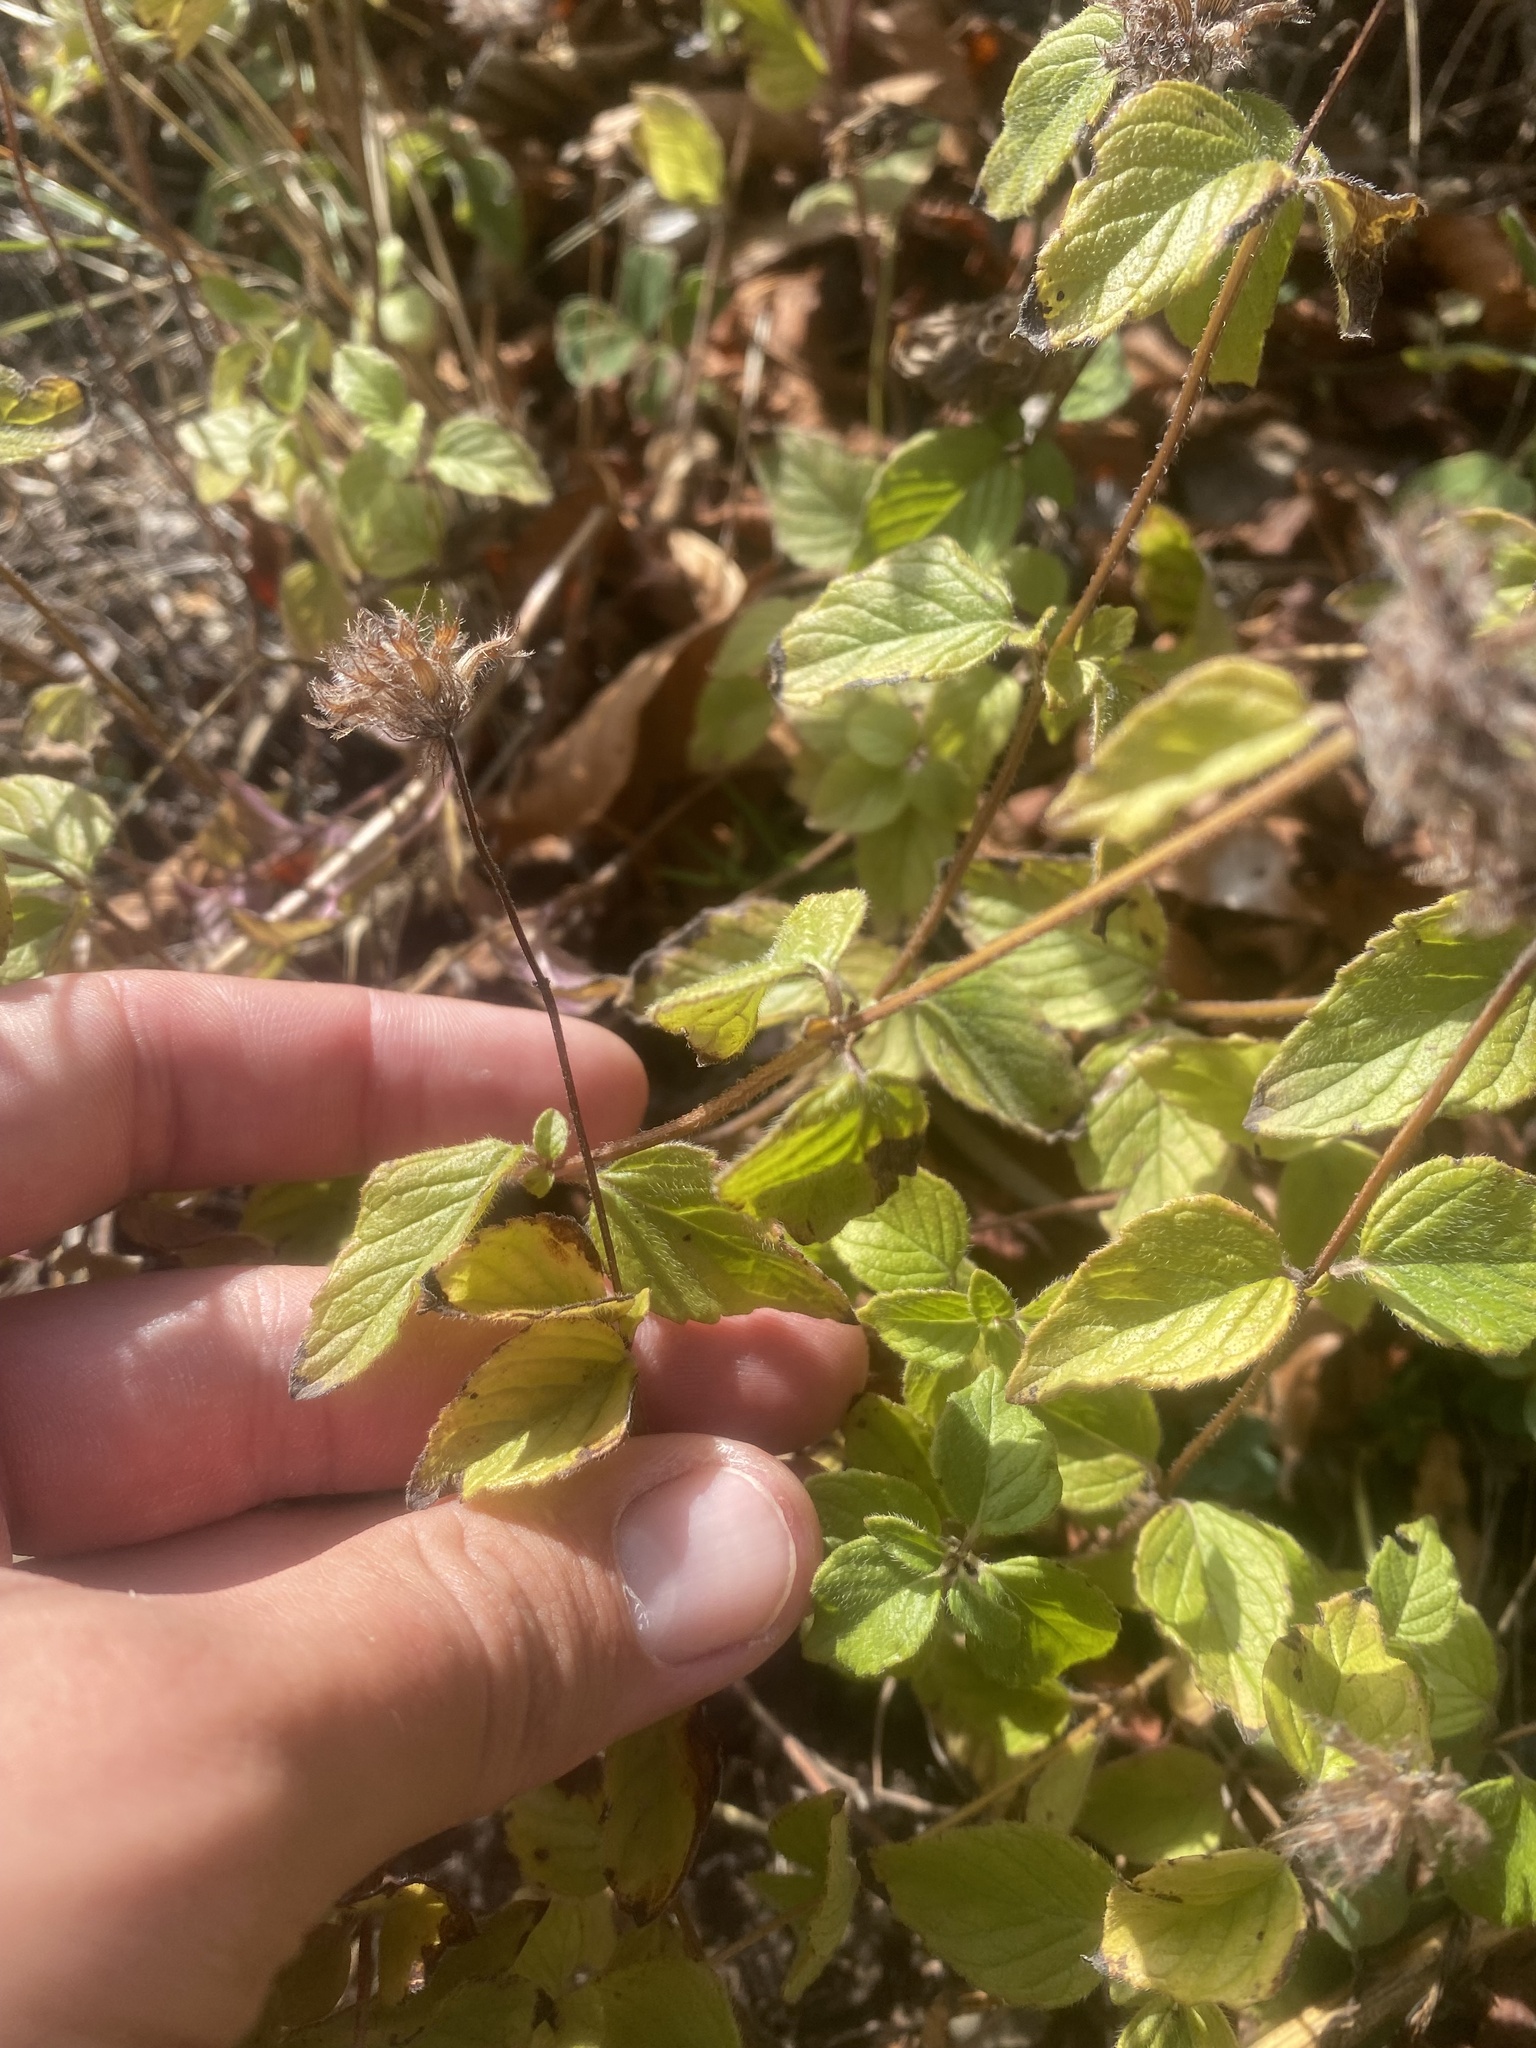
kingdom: Plantae
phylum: Tracheophyta
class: Magnoliopsida
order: Lamiales
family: Lamiaceae
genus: Clinopodium
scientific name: Clinopodium caucasicum
